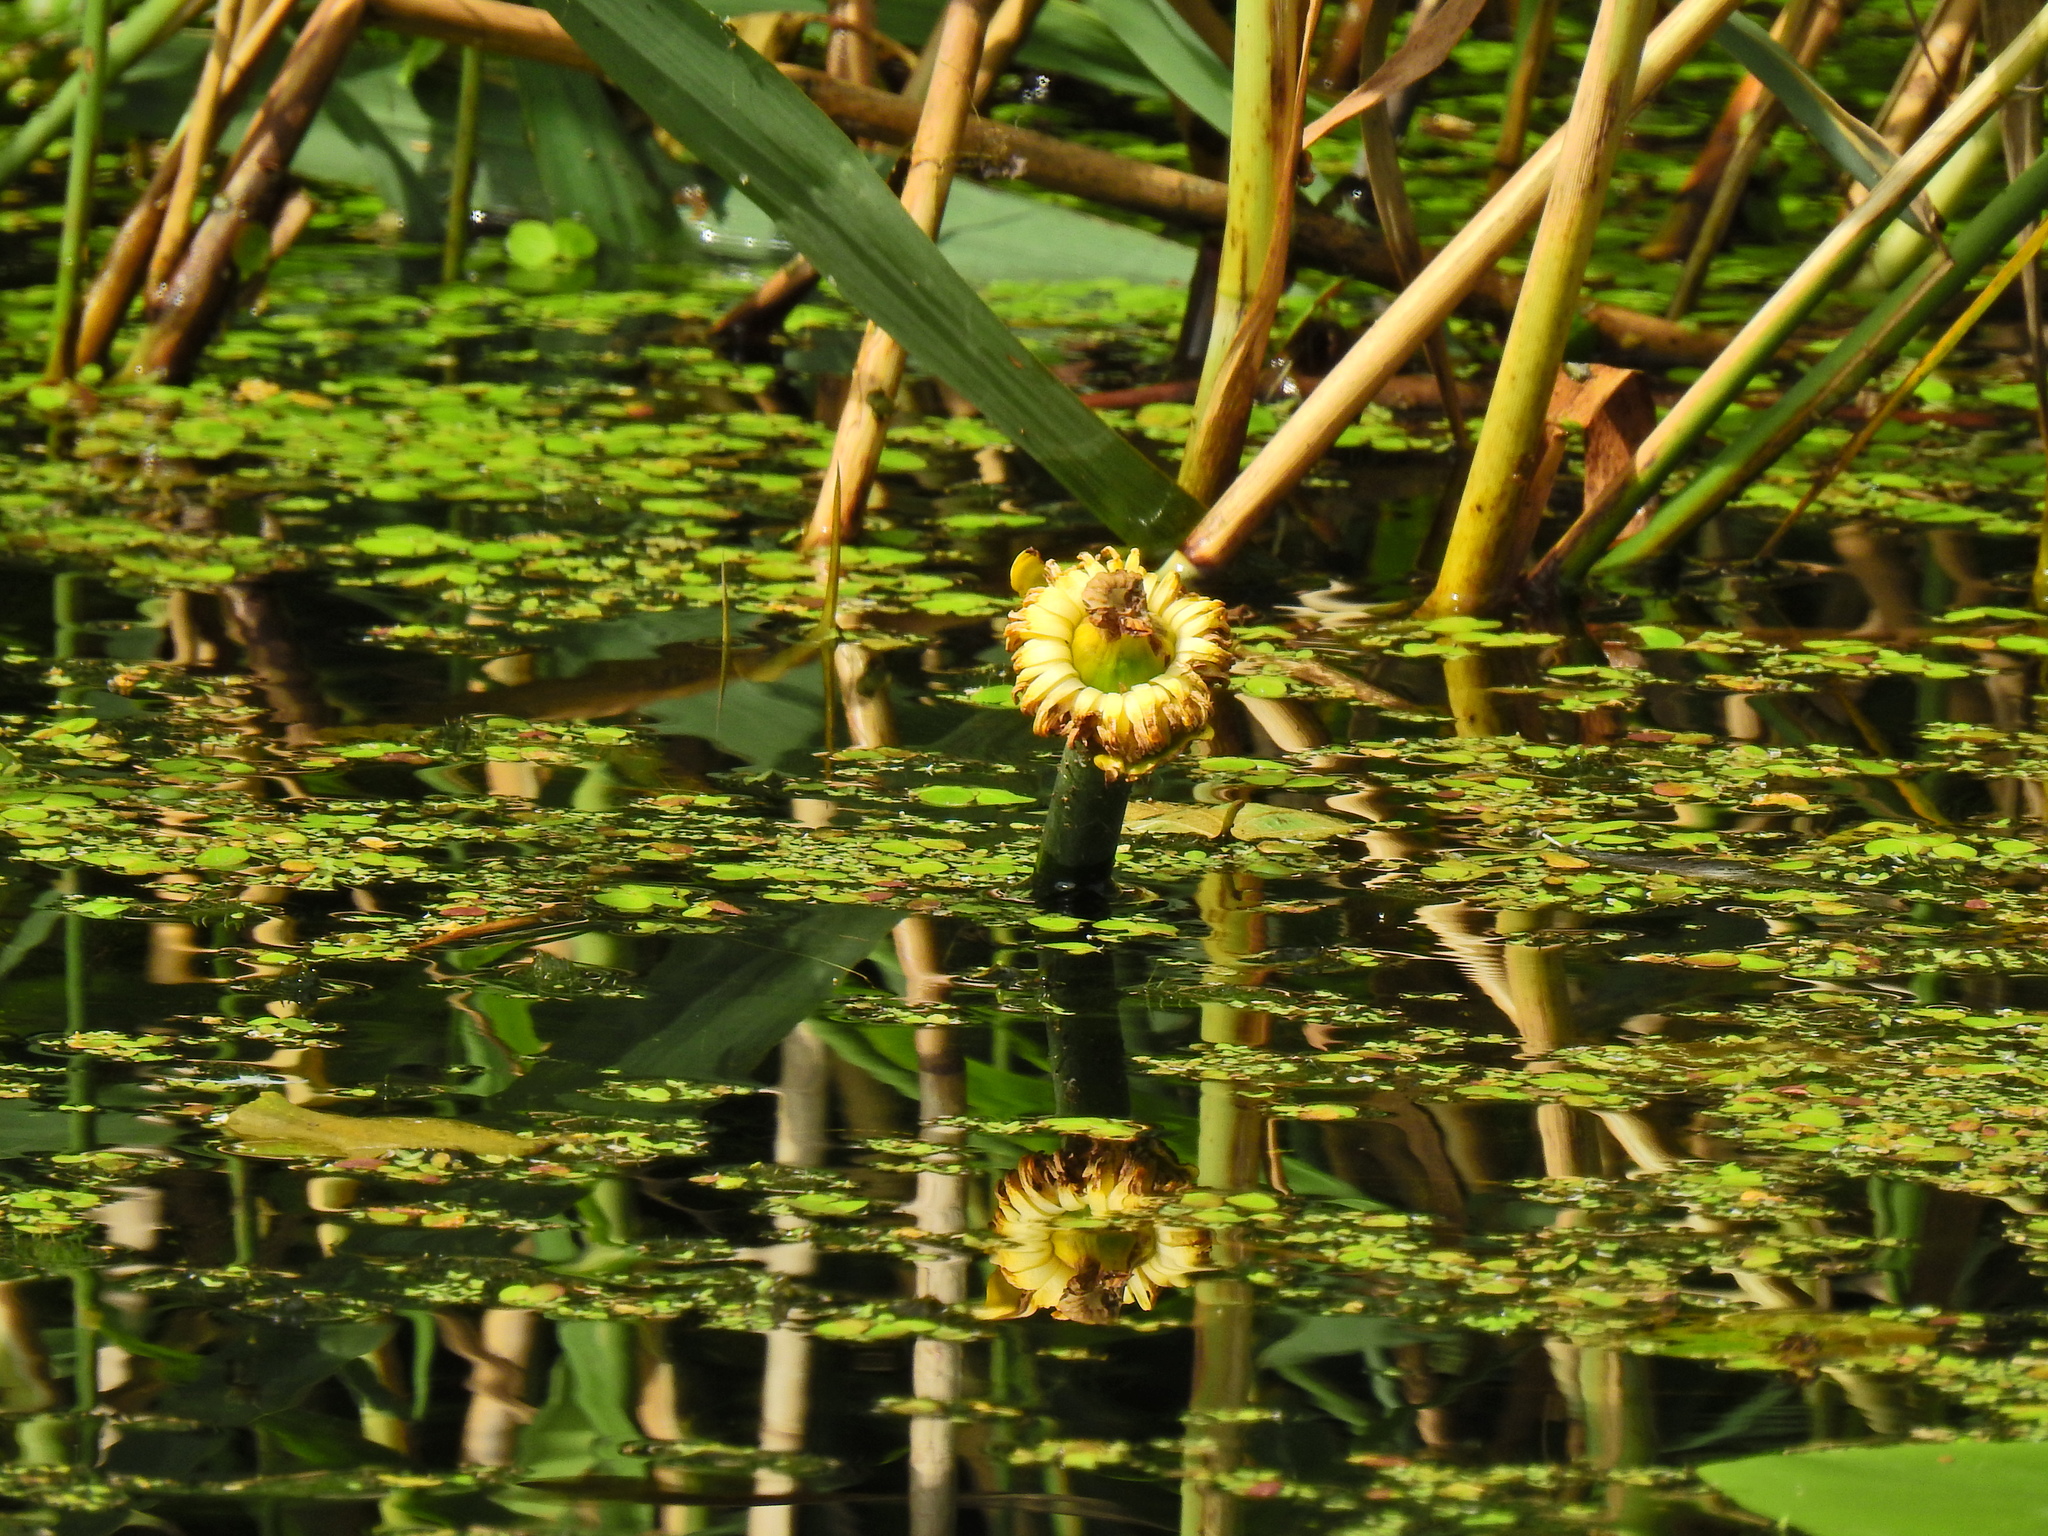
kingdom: Plantae
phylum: Tracheophyta
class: Magnoliopsida
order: Nymphaeales
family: Nymphaeaceae
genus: Nuphar
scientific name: Nuphar lutea
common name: Yellow water-lily
